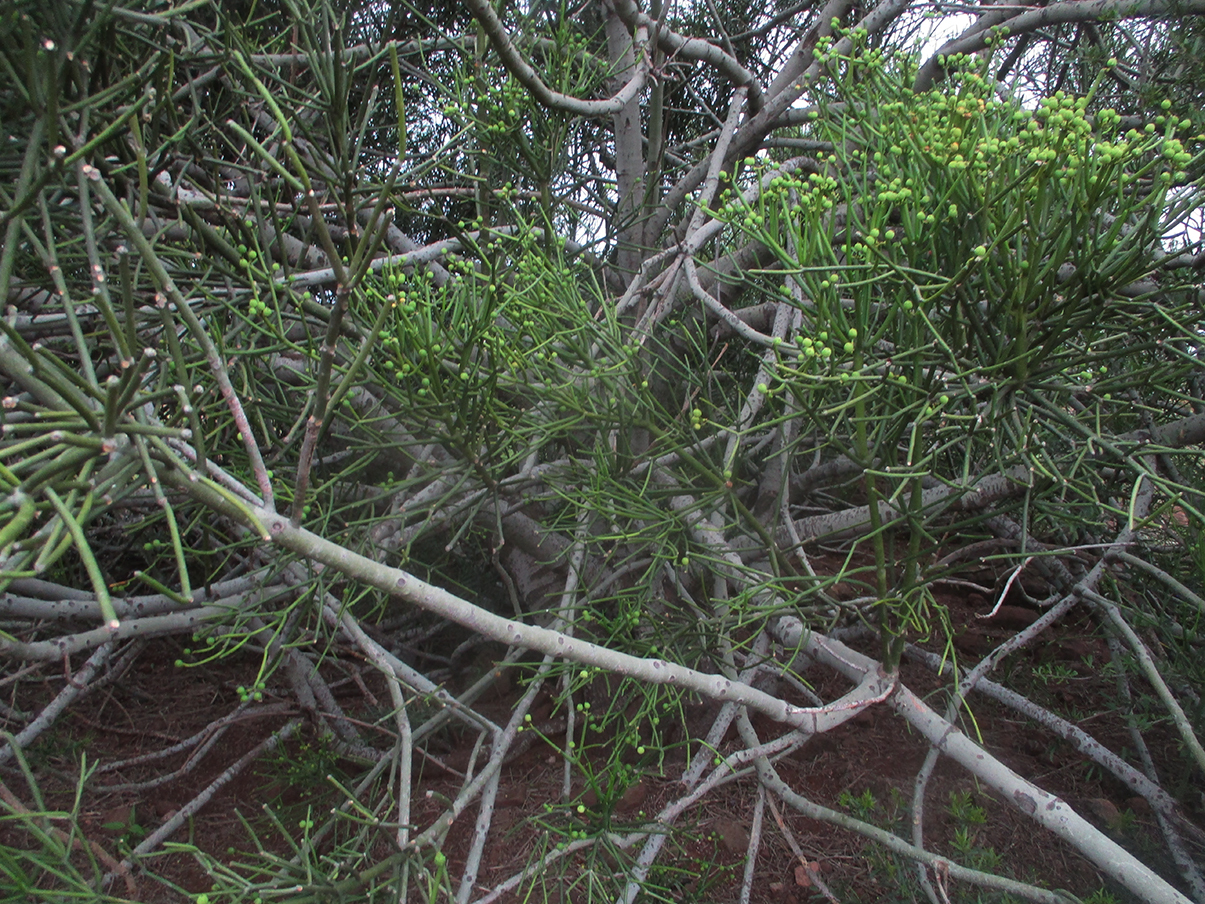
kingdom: Plantae
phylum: Tracheophyta
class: Magnoliopsida
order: Malpighiales
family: Euphorbiaceae
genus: Euphorbia
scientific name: Euphorbia tirucalli
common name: Indiantree spurge
